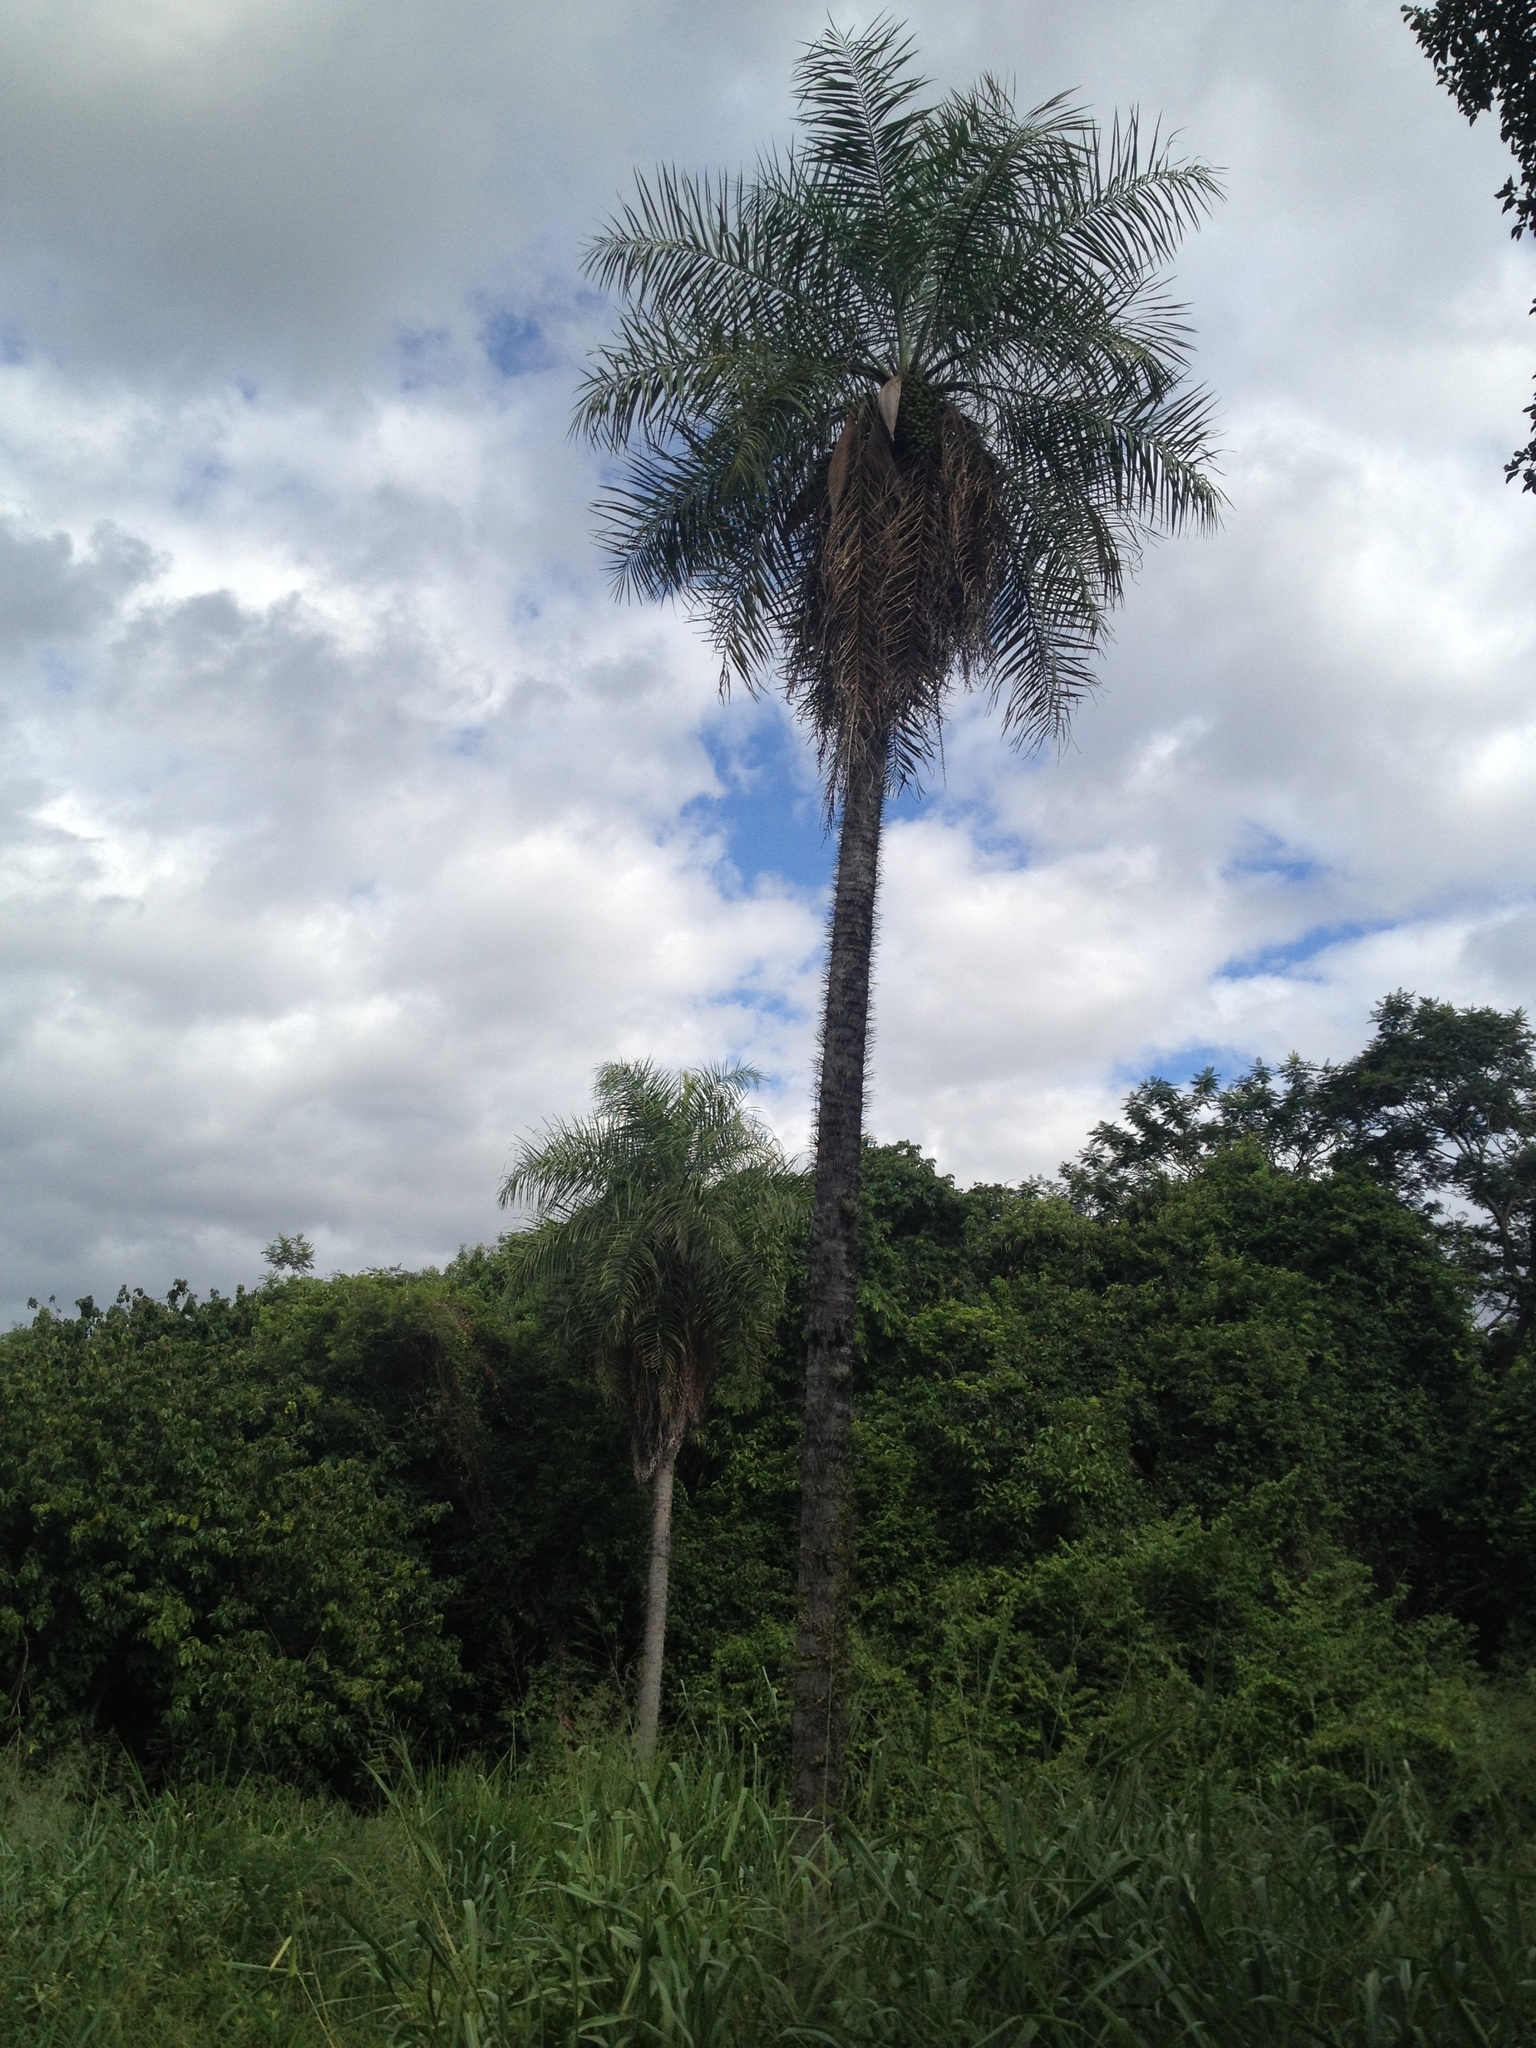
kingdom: Plantae
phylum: Tracheophyta
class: Liliopsida
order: Arecales
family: Arecaceae
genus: Acrocomia
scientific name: Acrocomia aculeata
